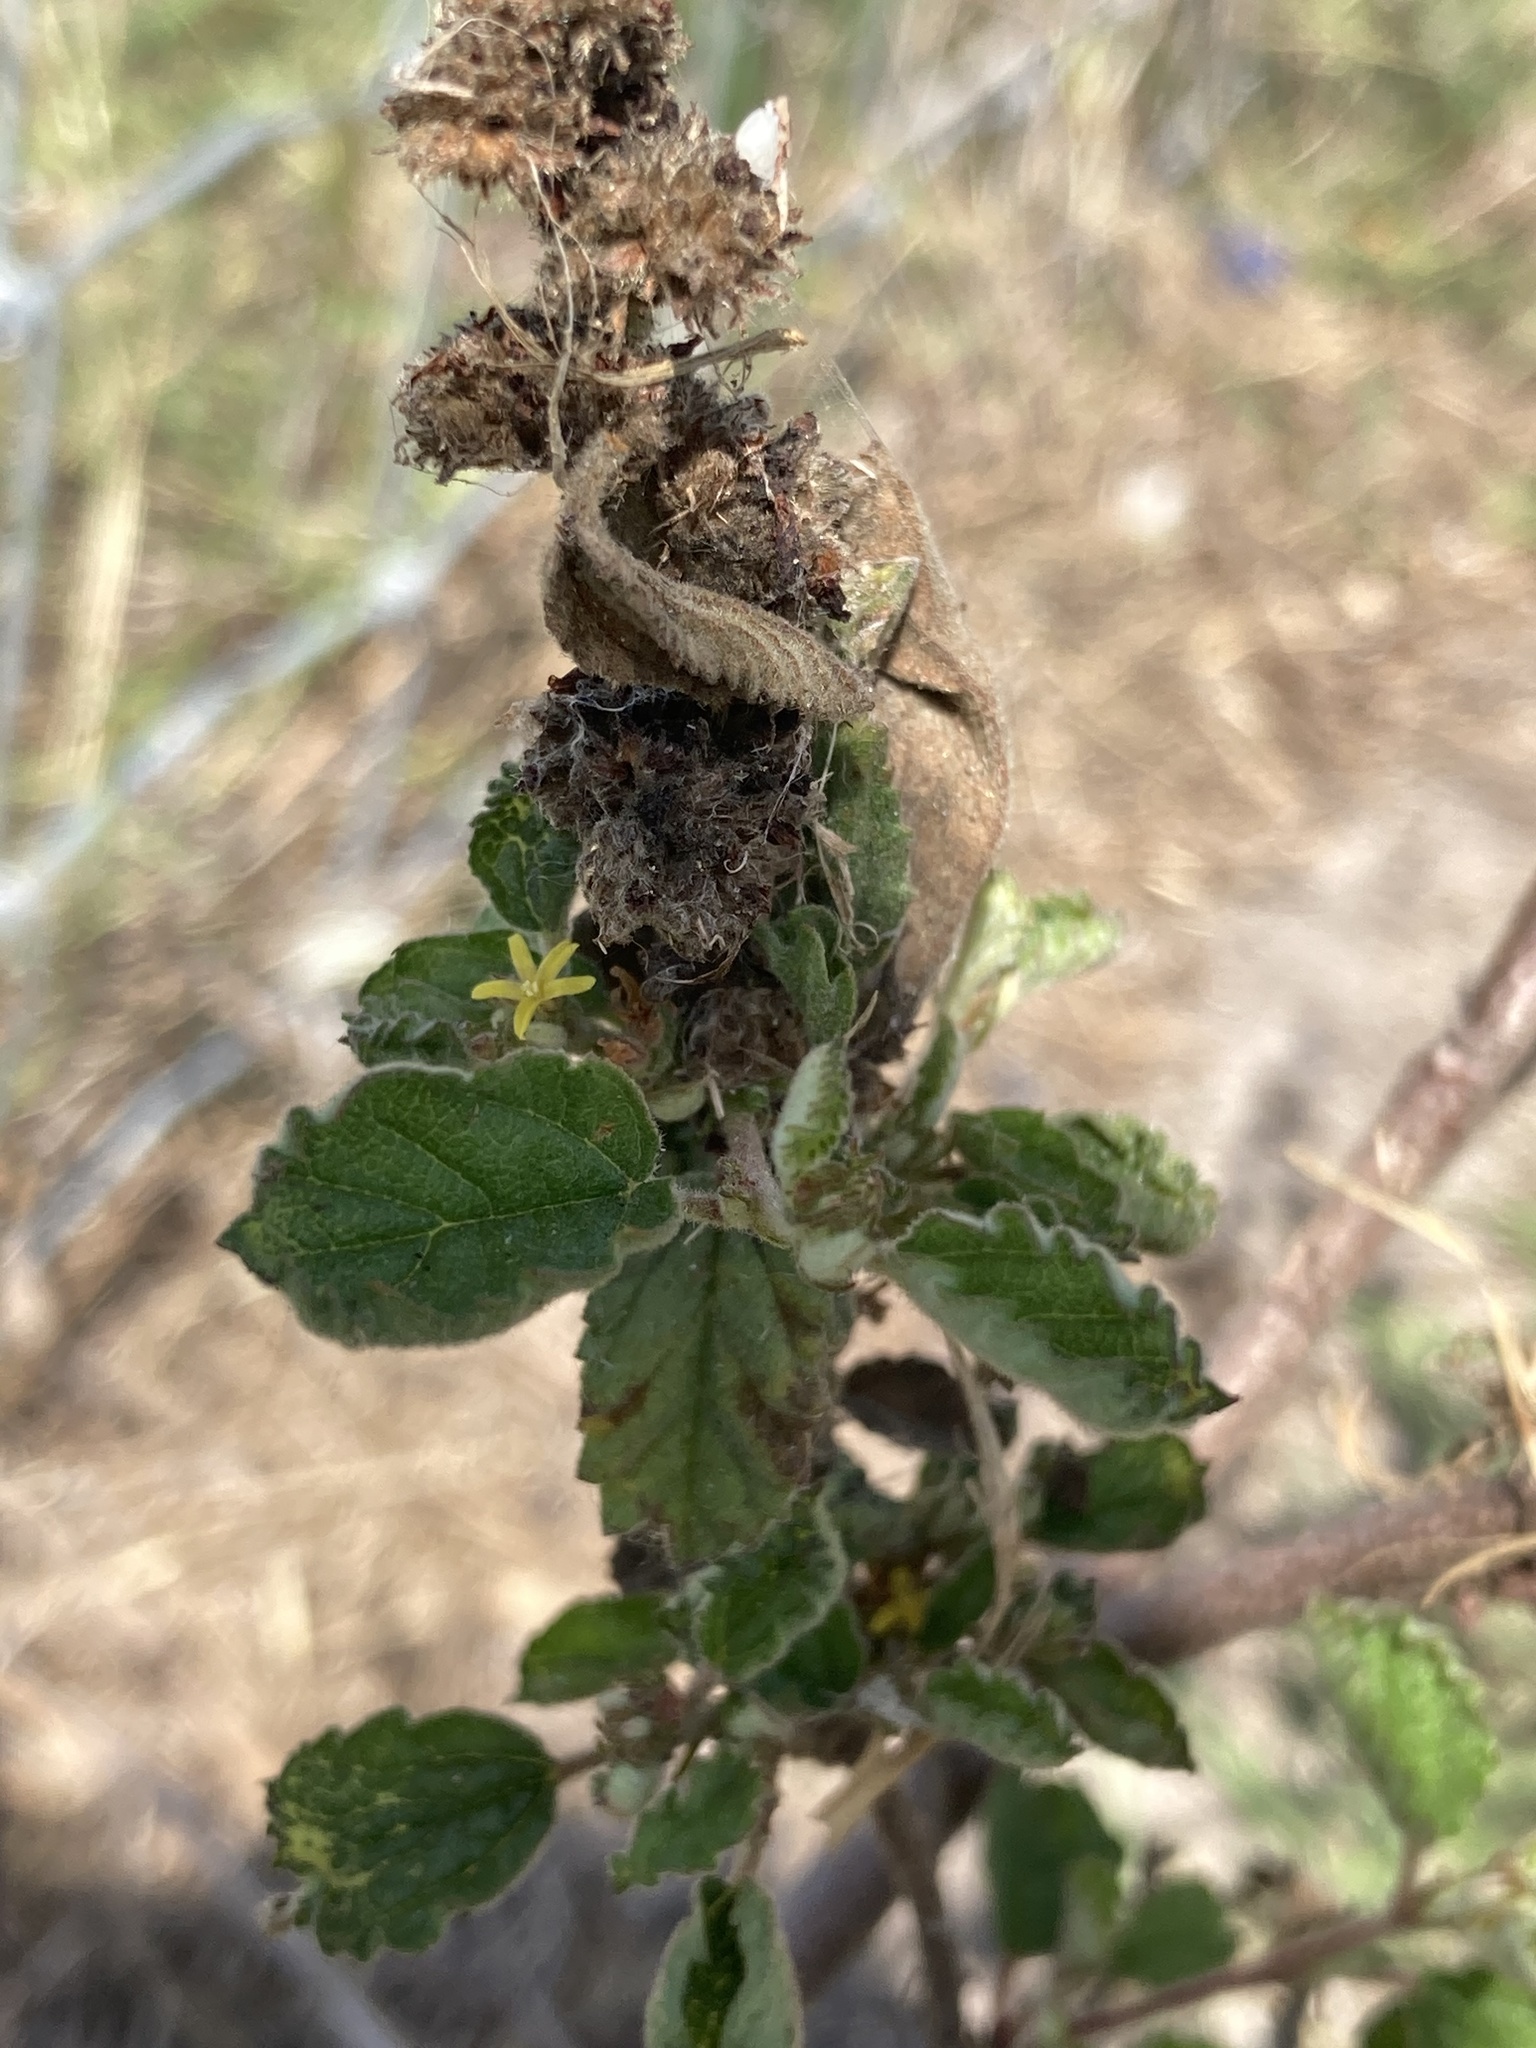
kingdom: Plantae
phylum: Tracheophyta
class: Magnoliopsida
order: Malvales
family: Malvaceae
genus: Waltheria
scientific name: Waltheria indica
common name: Leather-coat
